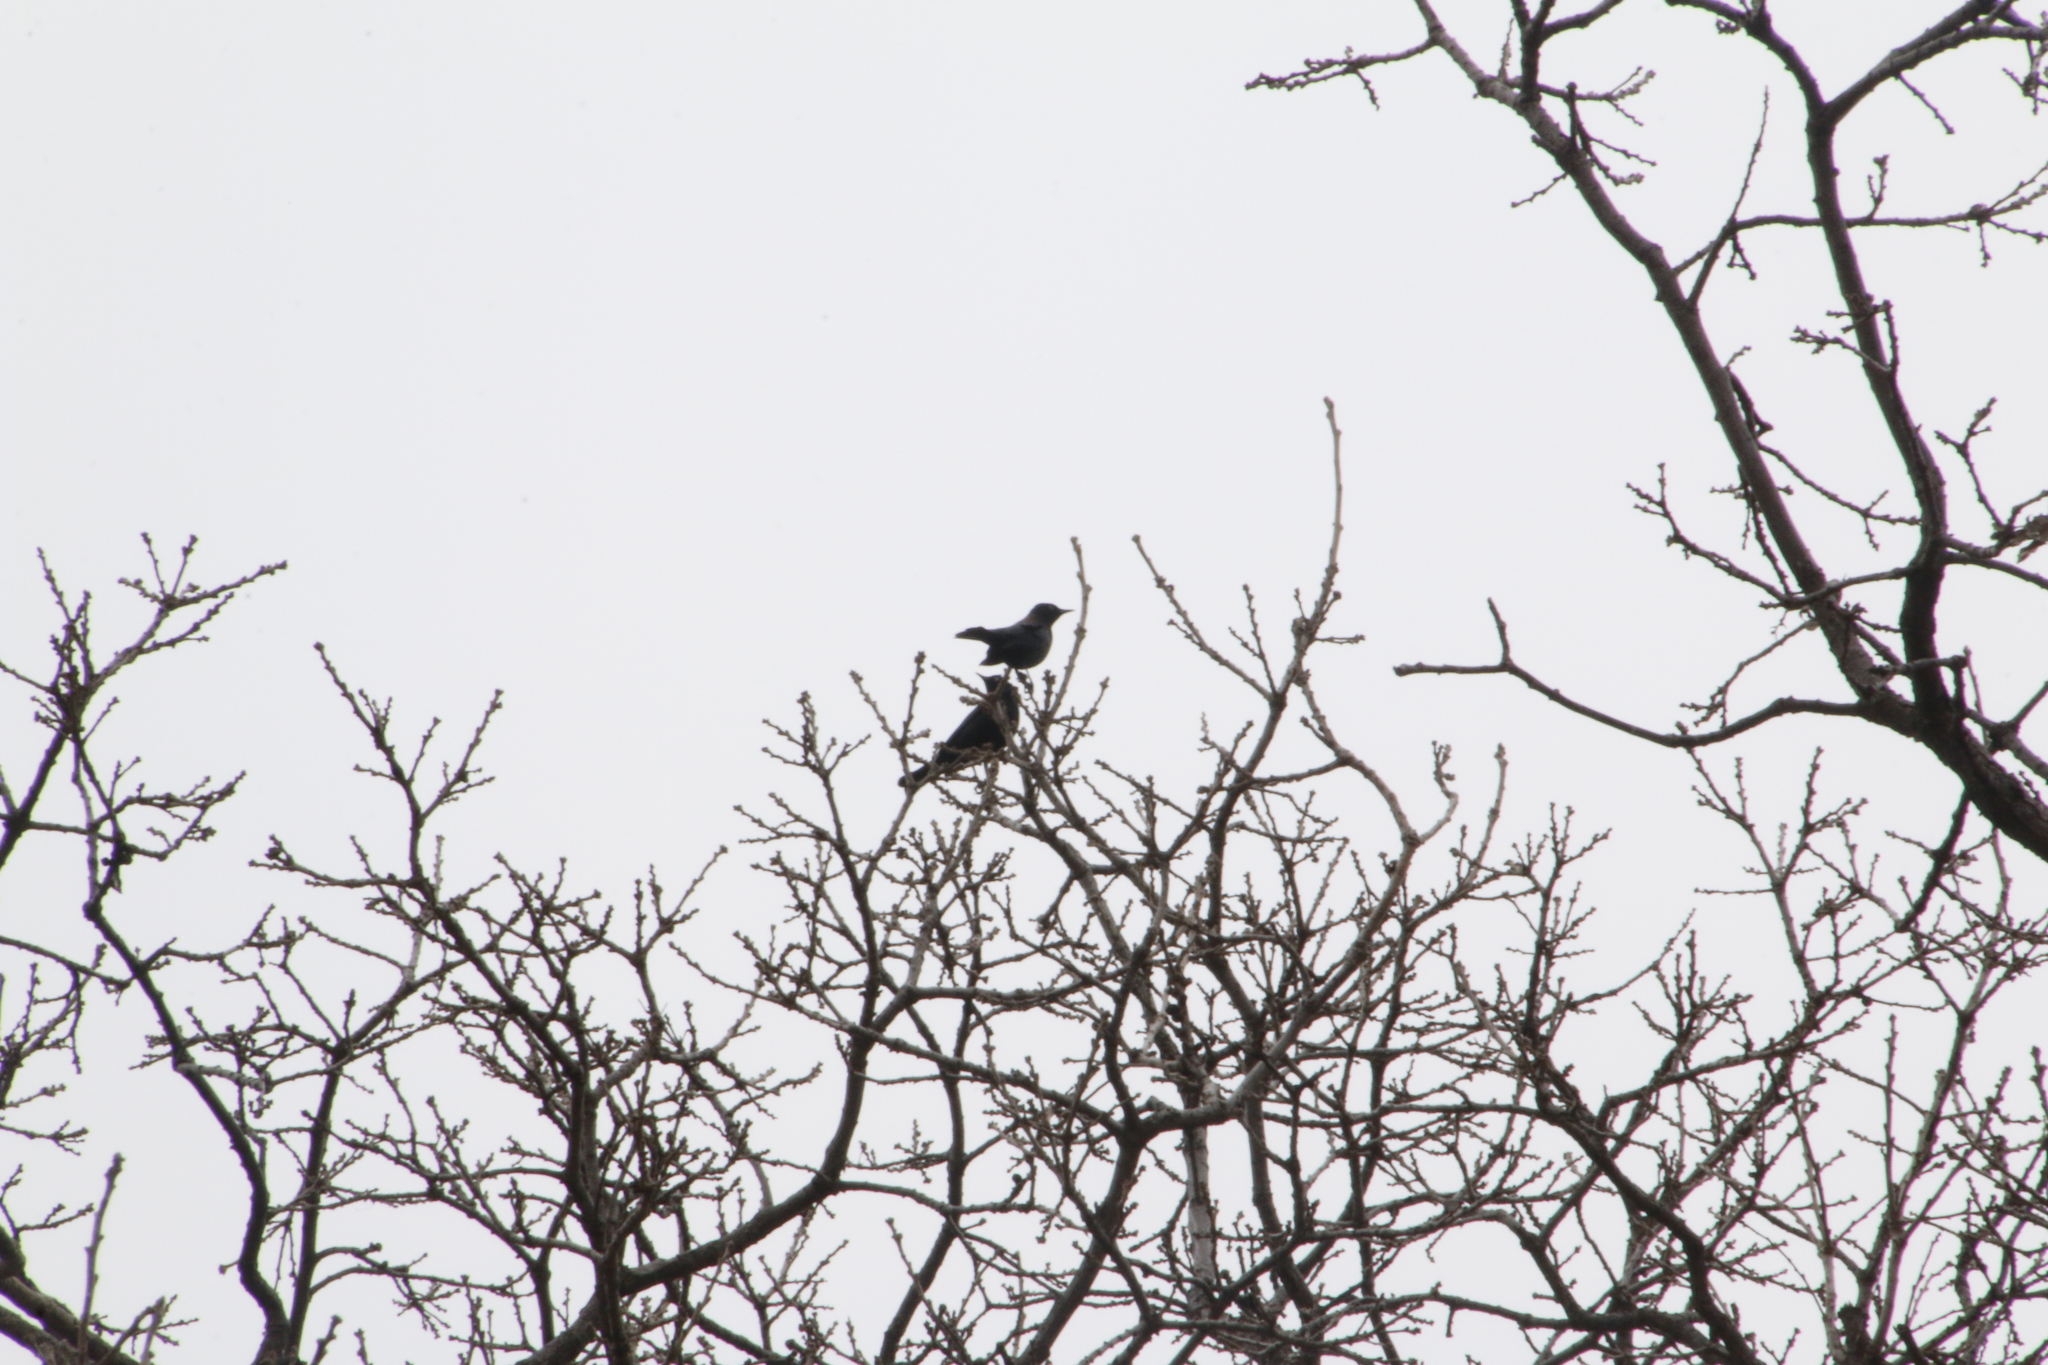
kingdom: Animalia
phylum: Chordata
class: Aves
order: Passeriformes
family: Icteridae
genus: Euphagus
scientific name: Euphagus carolinus
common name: Rusty blackbird
